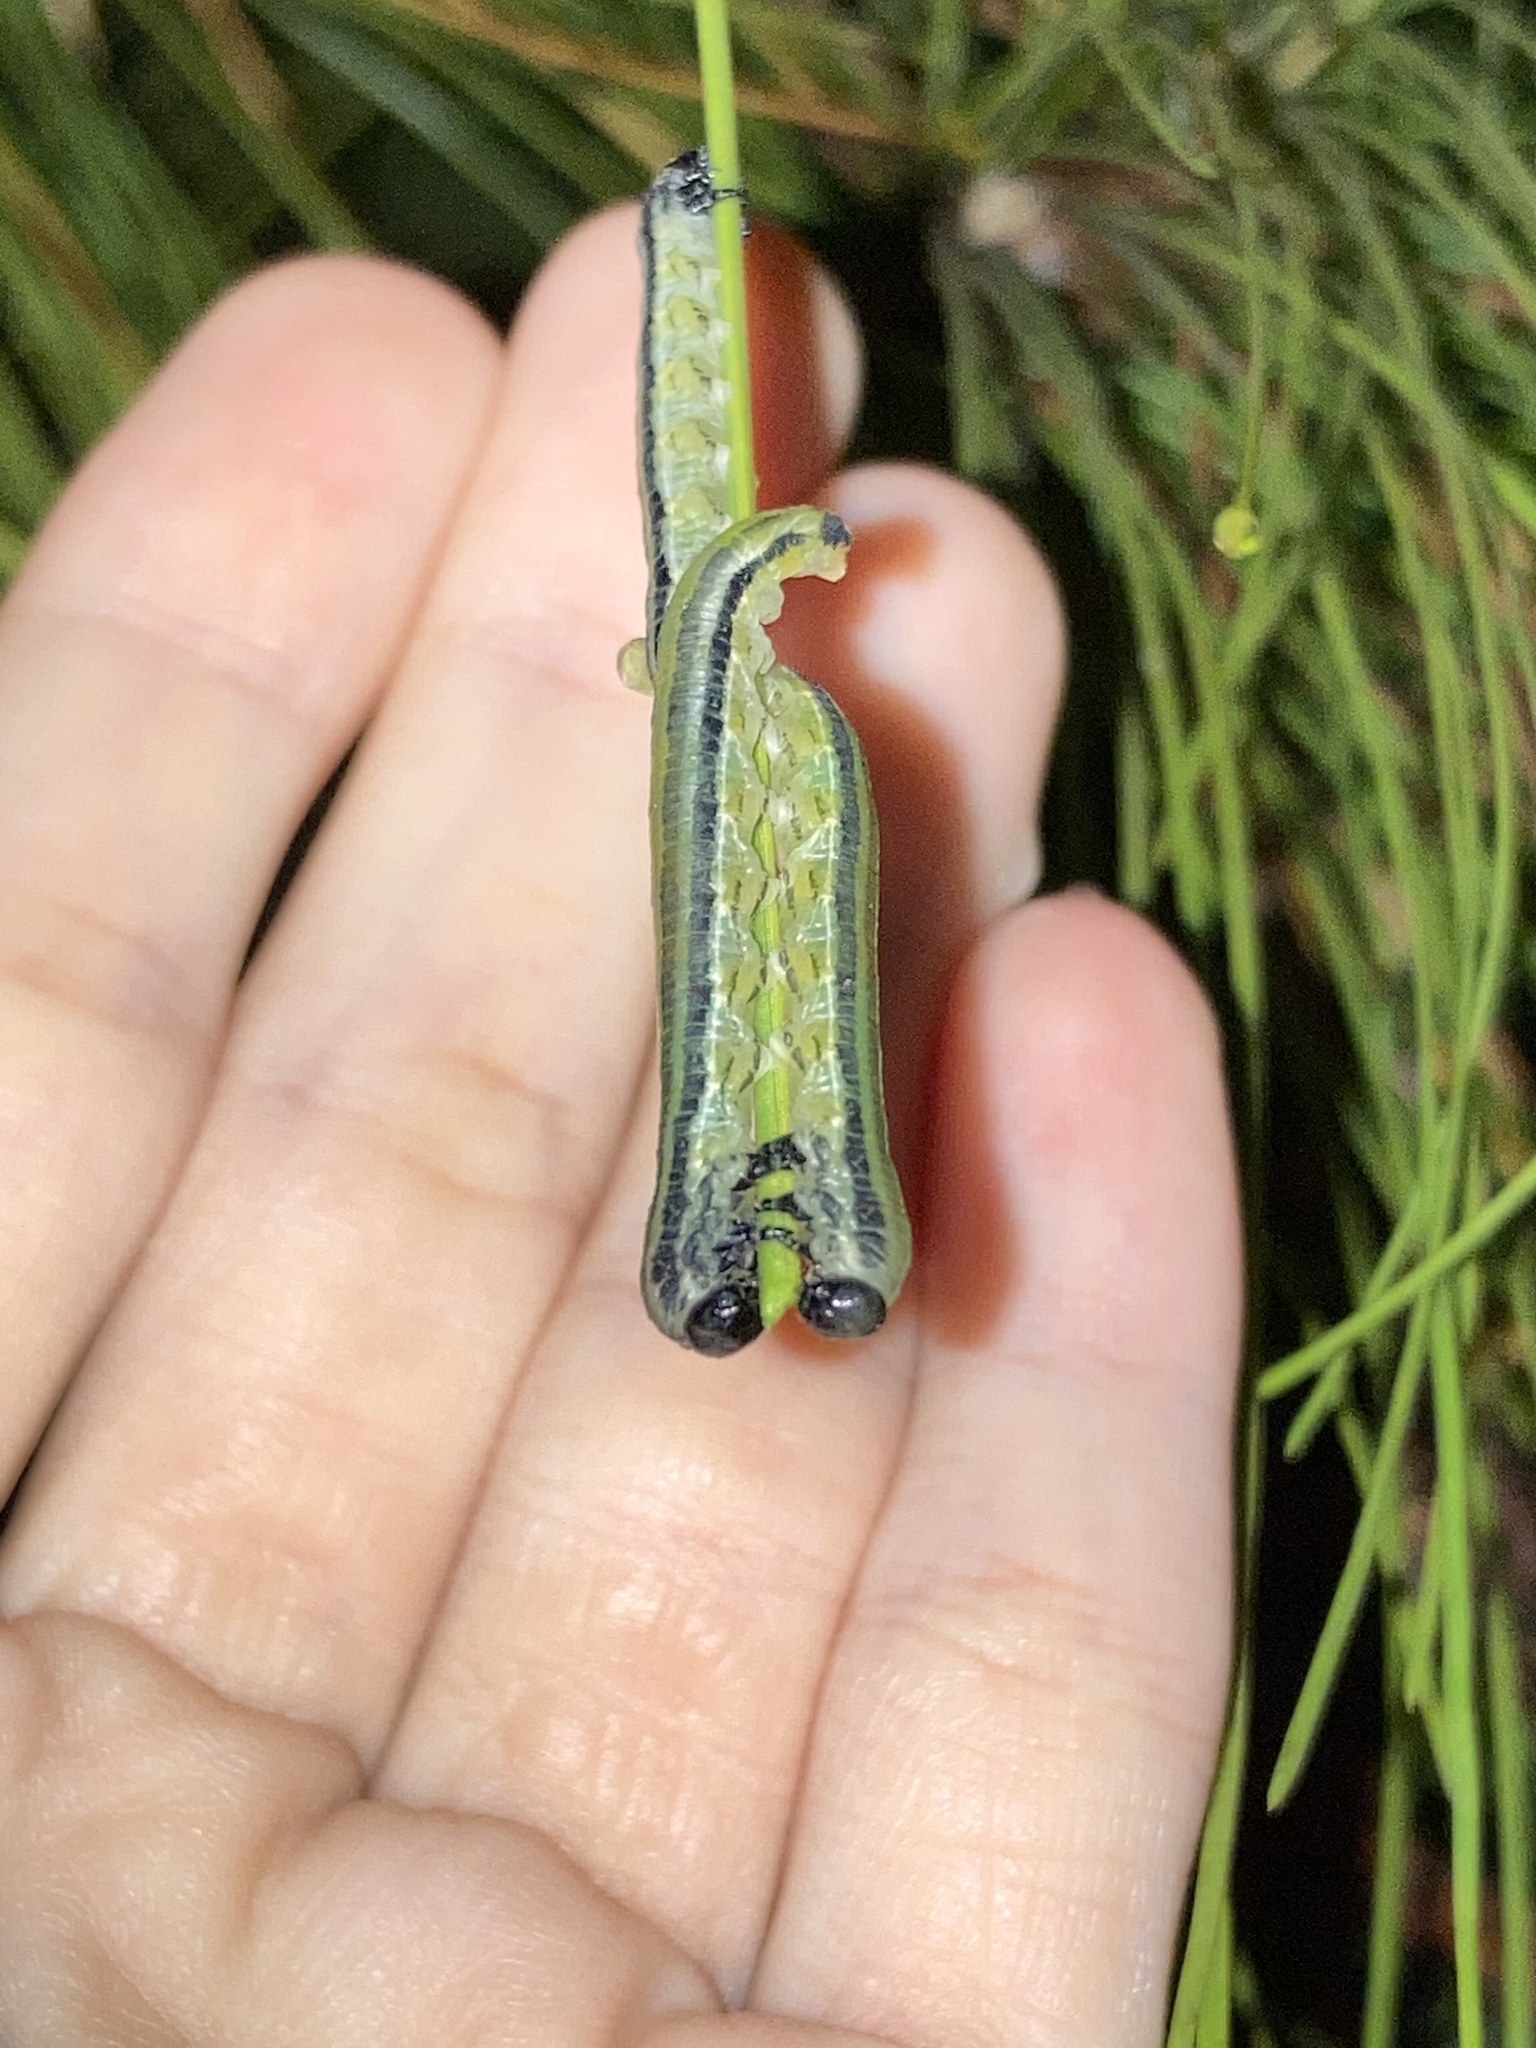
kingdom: Animalia
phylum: Arthropoda
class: Insecta
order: Hymenoptera
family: Diprionidae
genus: Neodiprion
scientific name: Neodiprion merkeli
